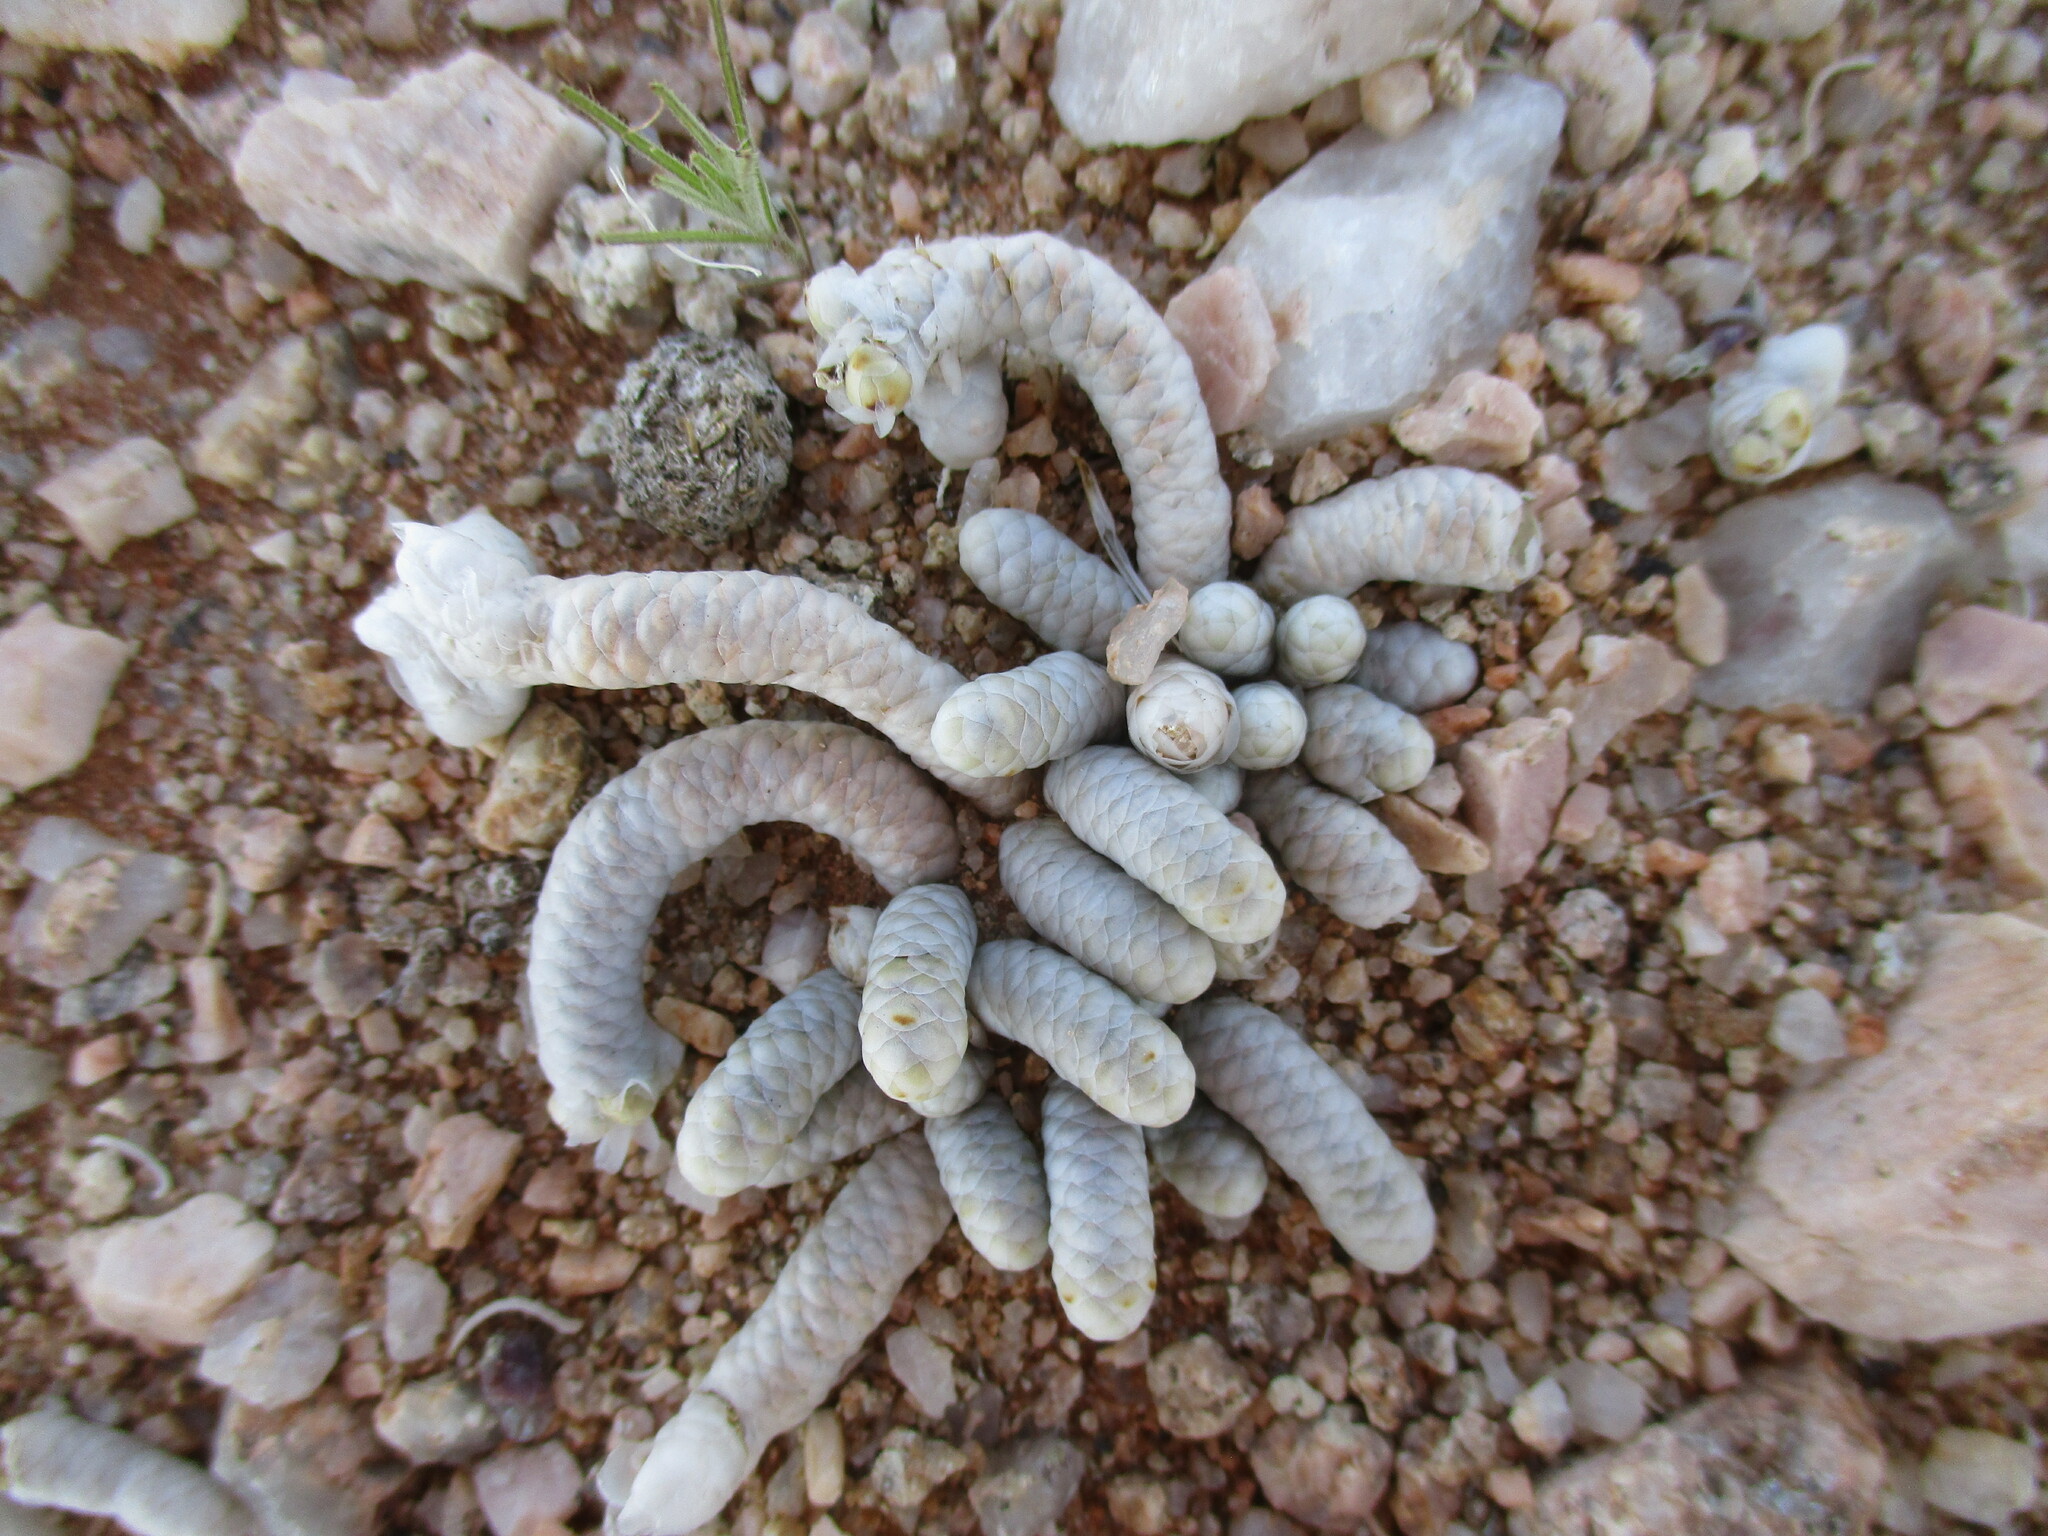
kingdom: Plantae
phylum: Tracheophyta
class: Magnoliopsida
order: Caryophyllales
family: Anacampserotaceae
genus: Avonia
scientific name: Avonia albissima
